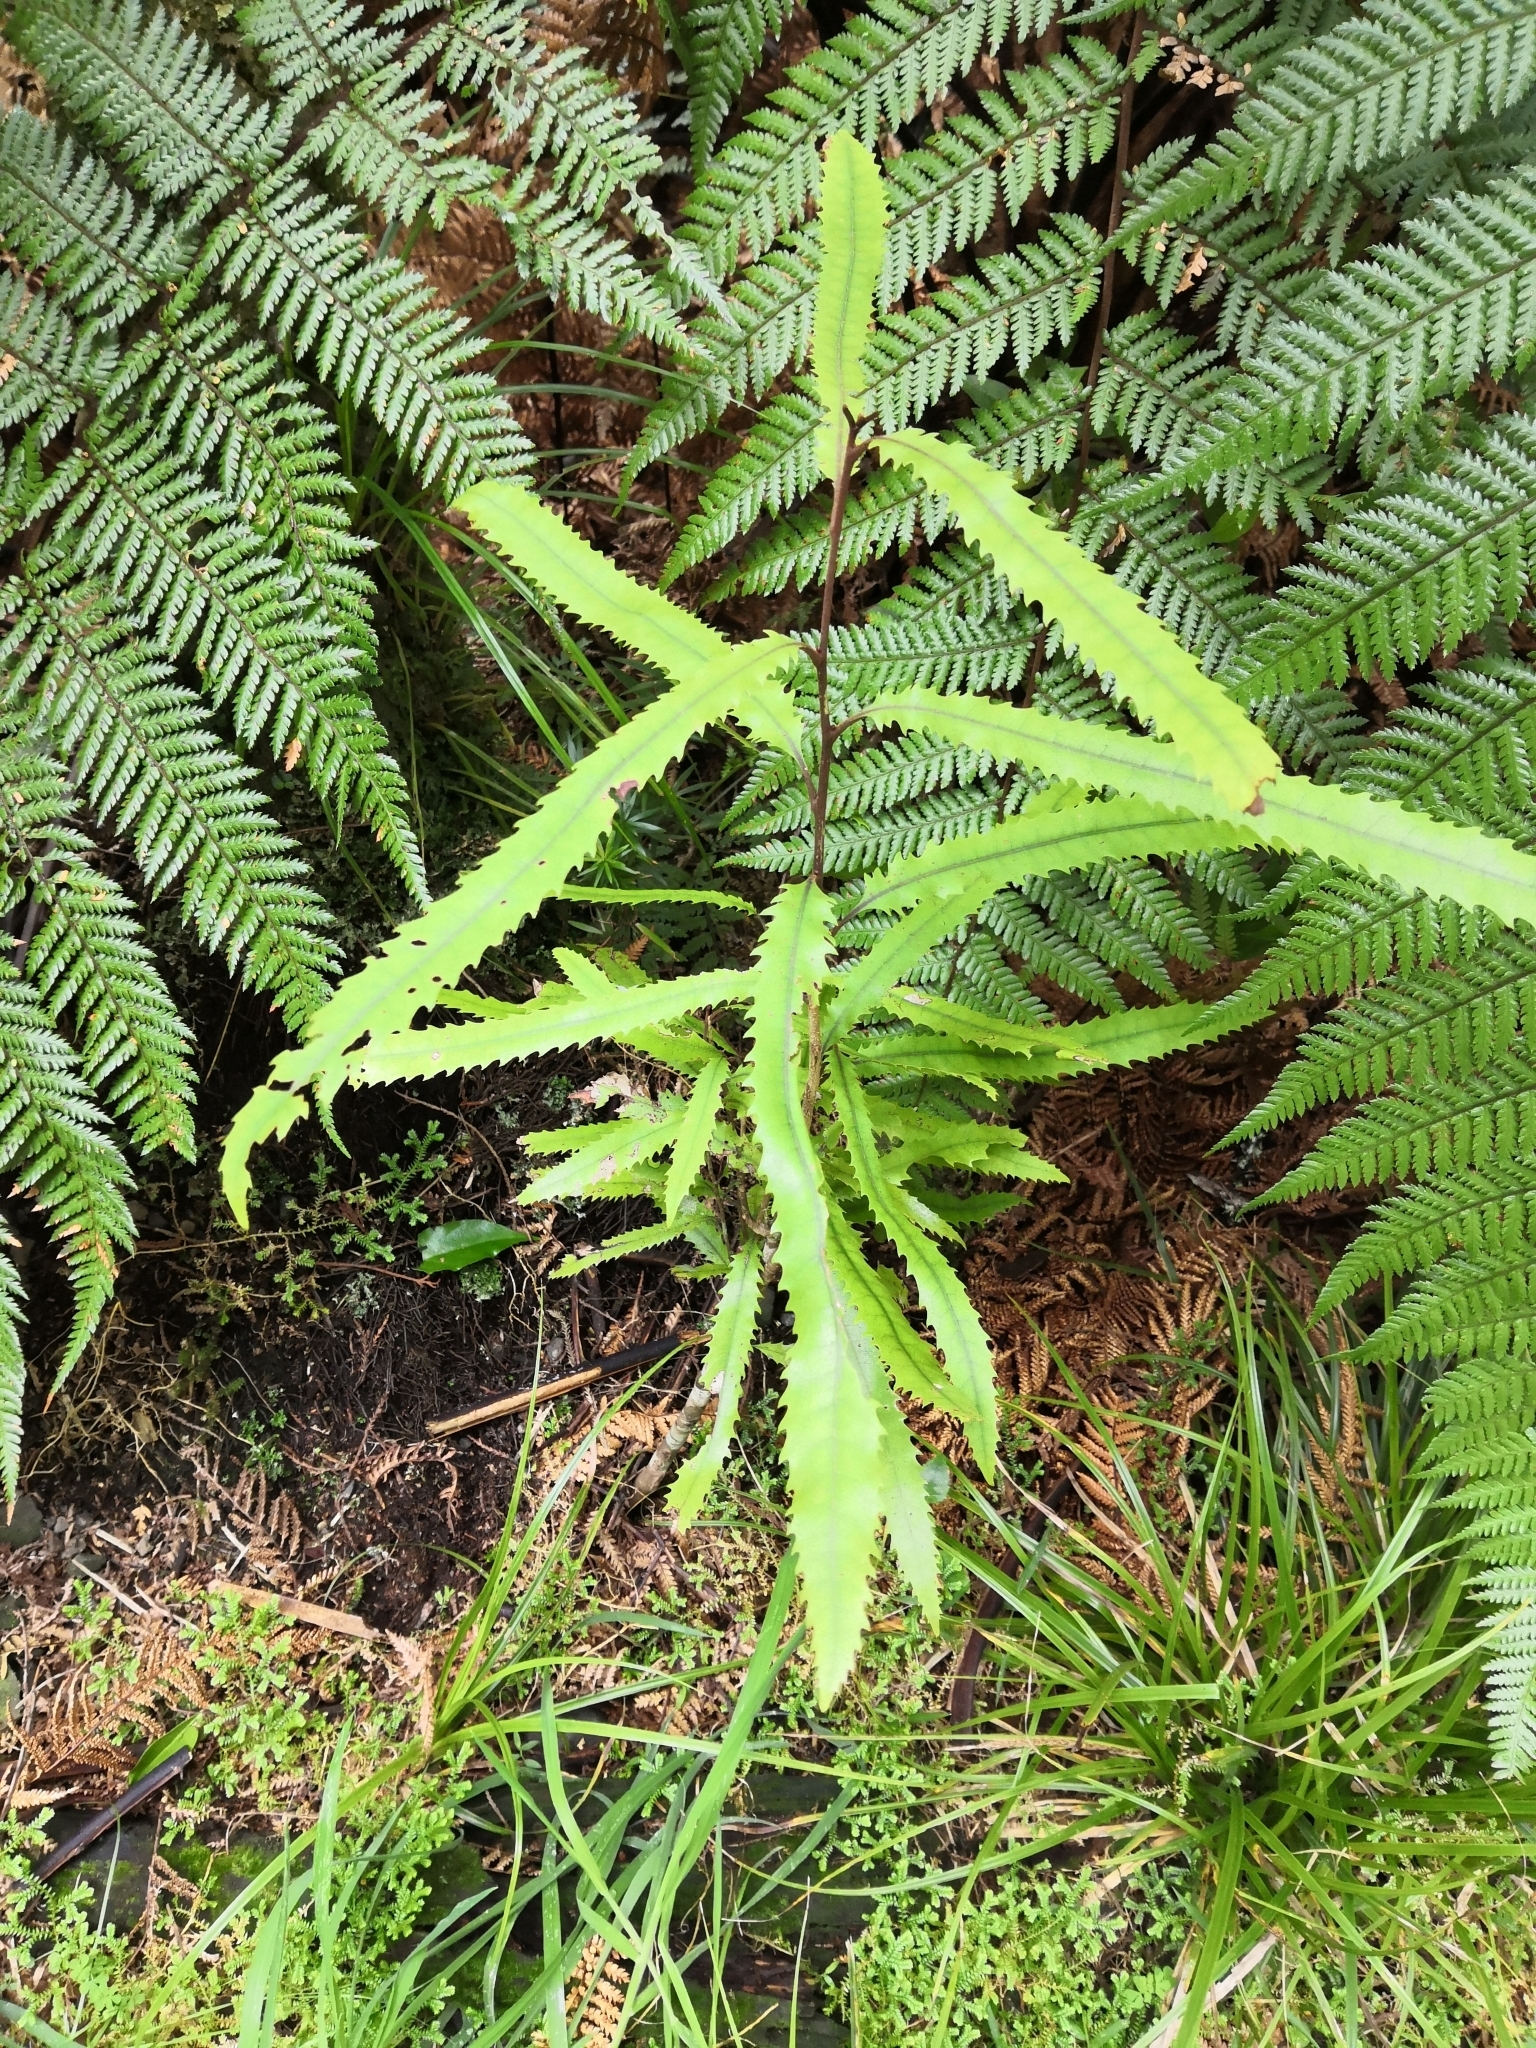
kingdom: Plantae
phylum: Tracheophyta
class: Magnoliopsida
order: Proteales
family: Proteaceae
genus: Knightia
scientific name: Knightia excelsa
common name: New zealand-honeysuckle
